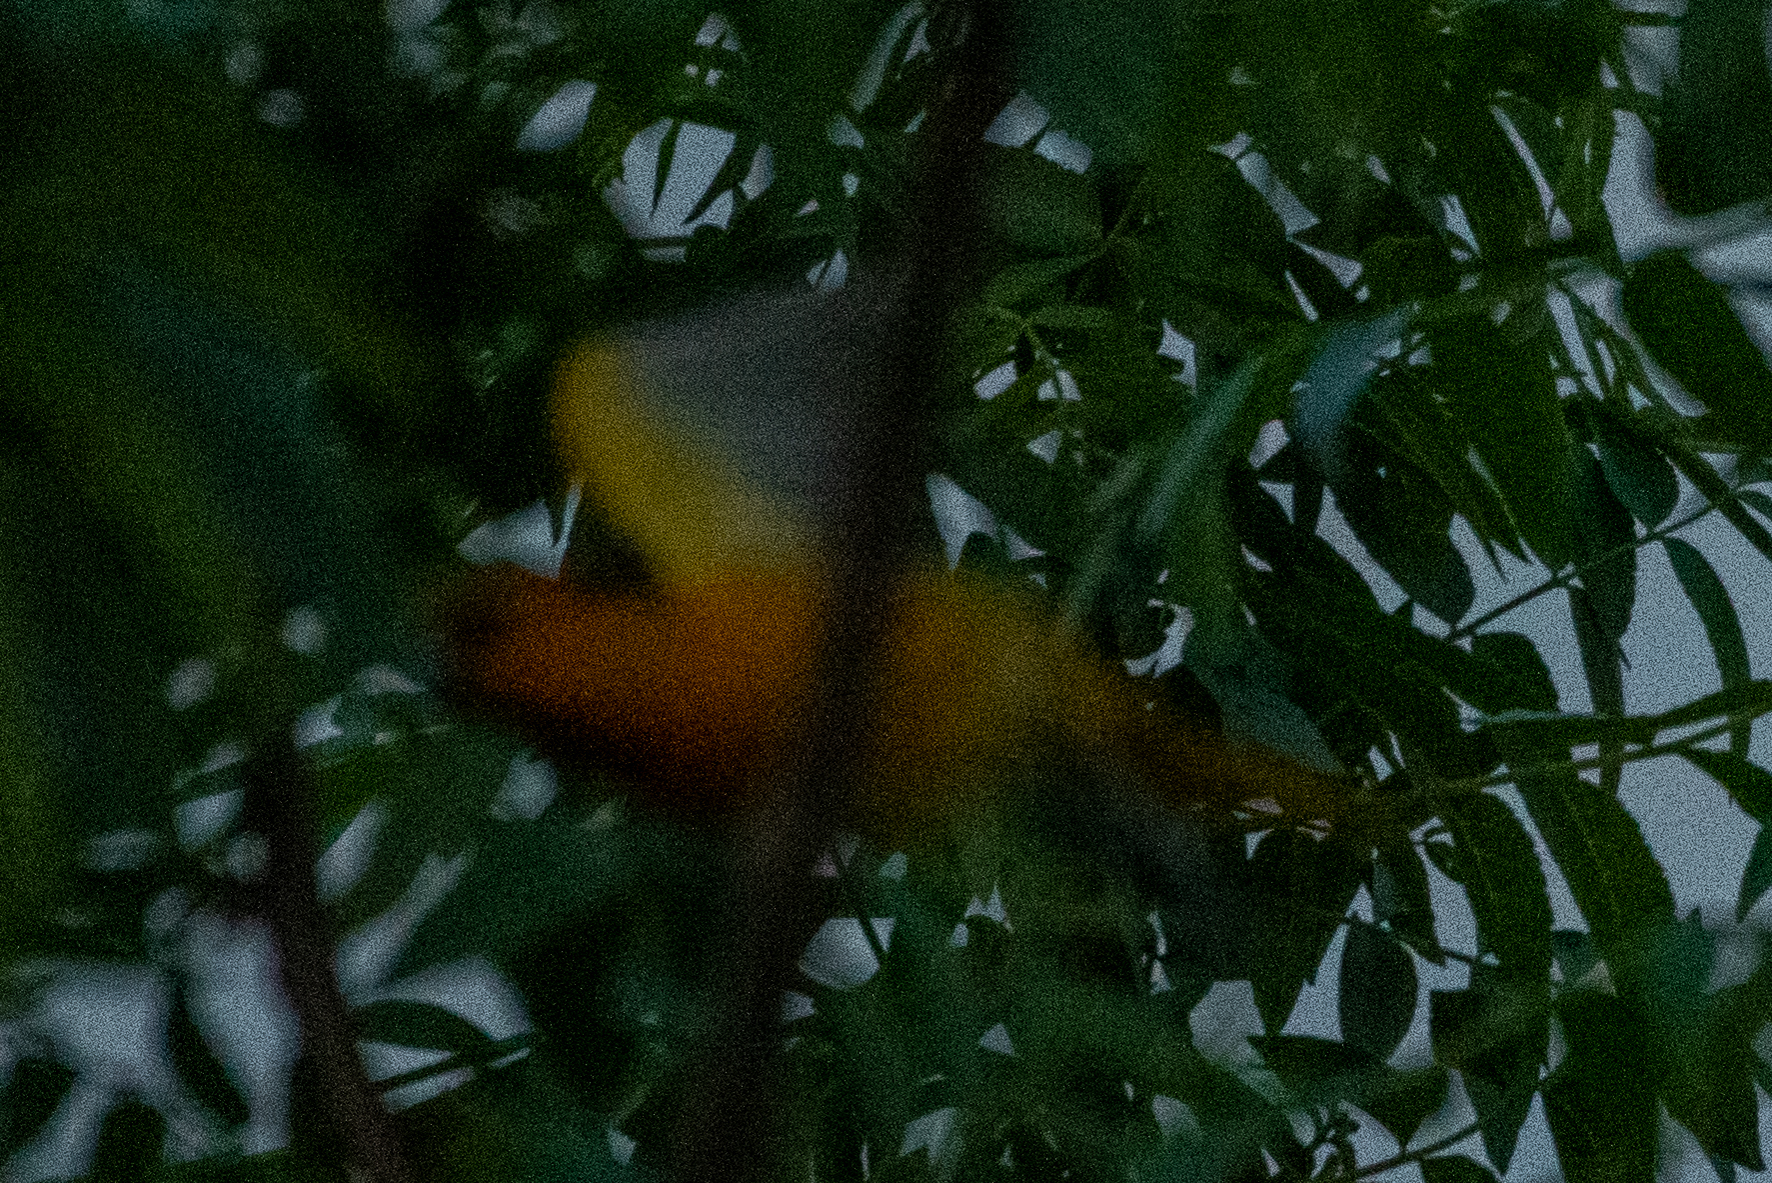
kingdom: Animalia
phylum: Chordata
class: Aves
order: Passeriformes
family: Icteridae
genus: Icterus
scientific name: Icterus bullockii
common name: Bullock's oriole
